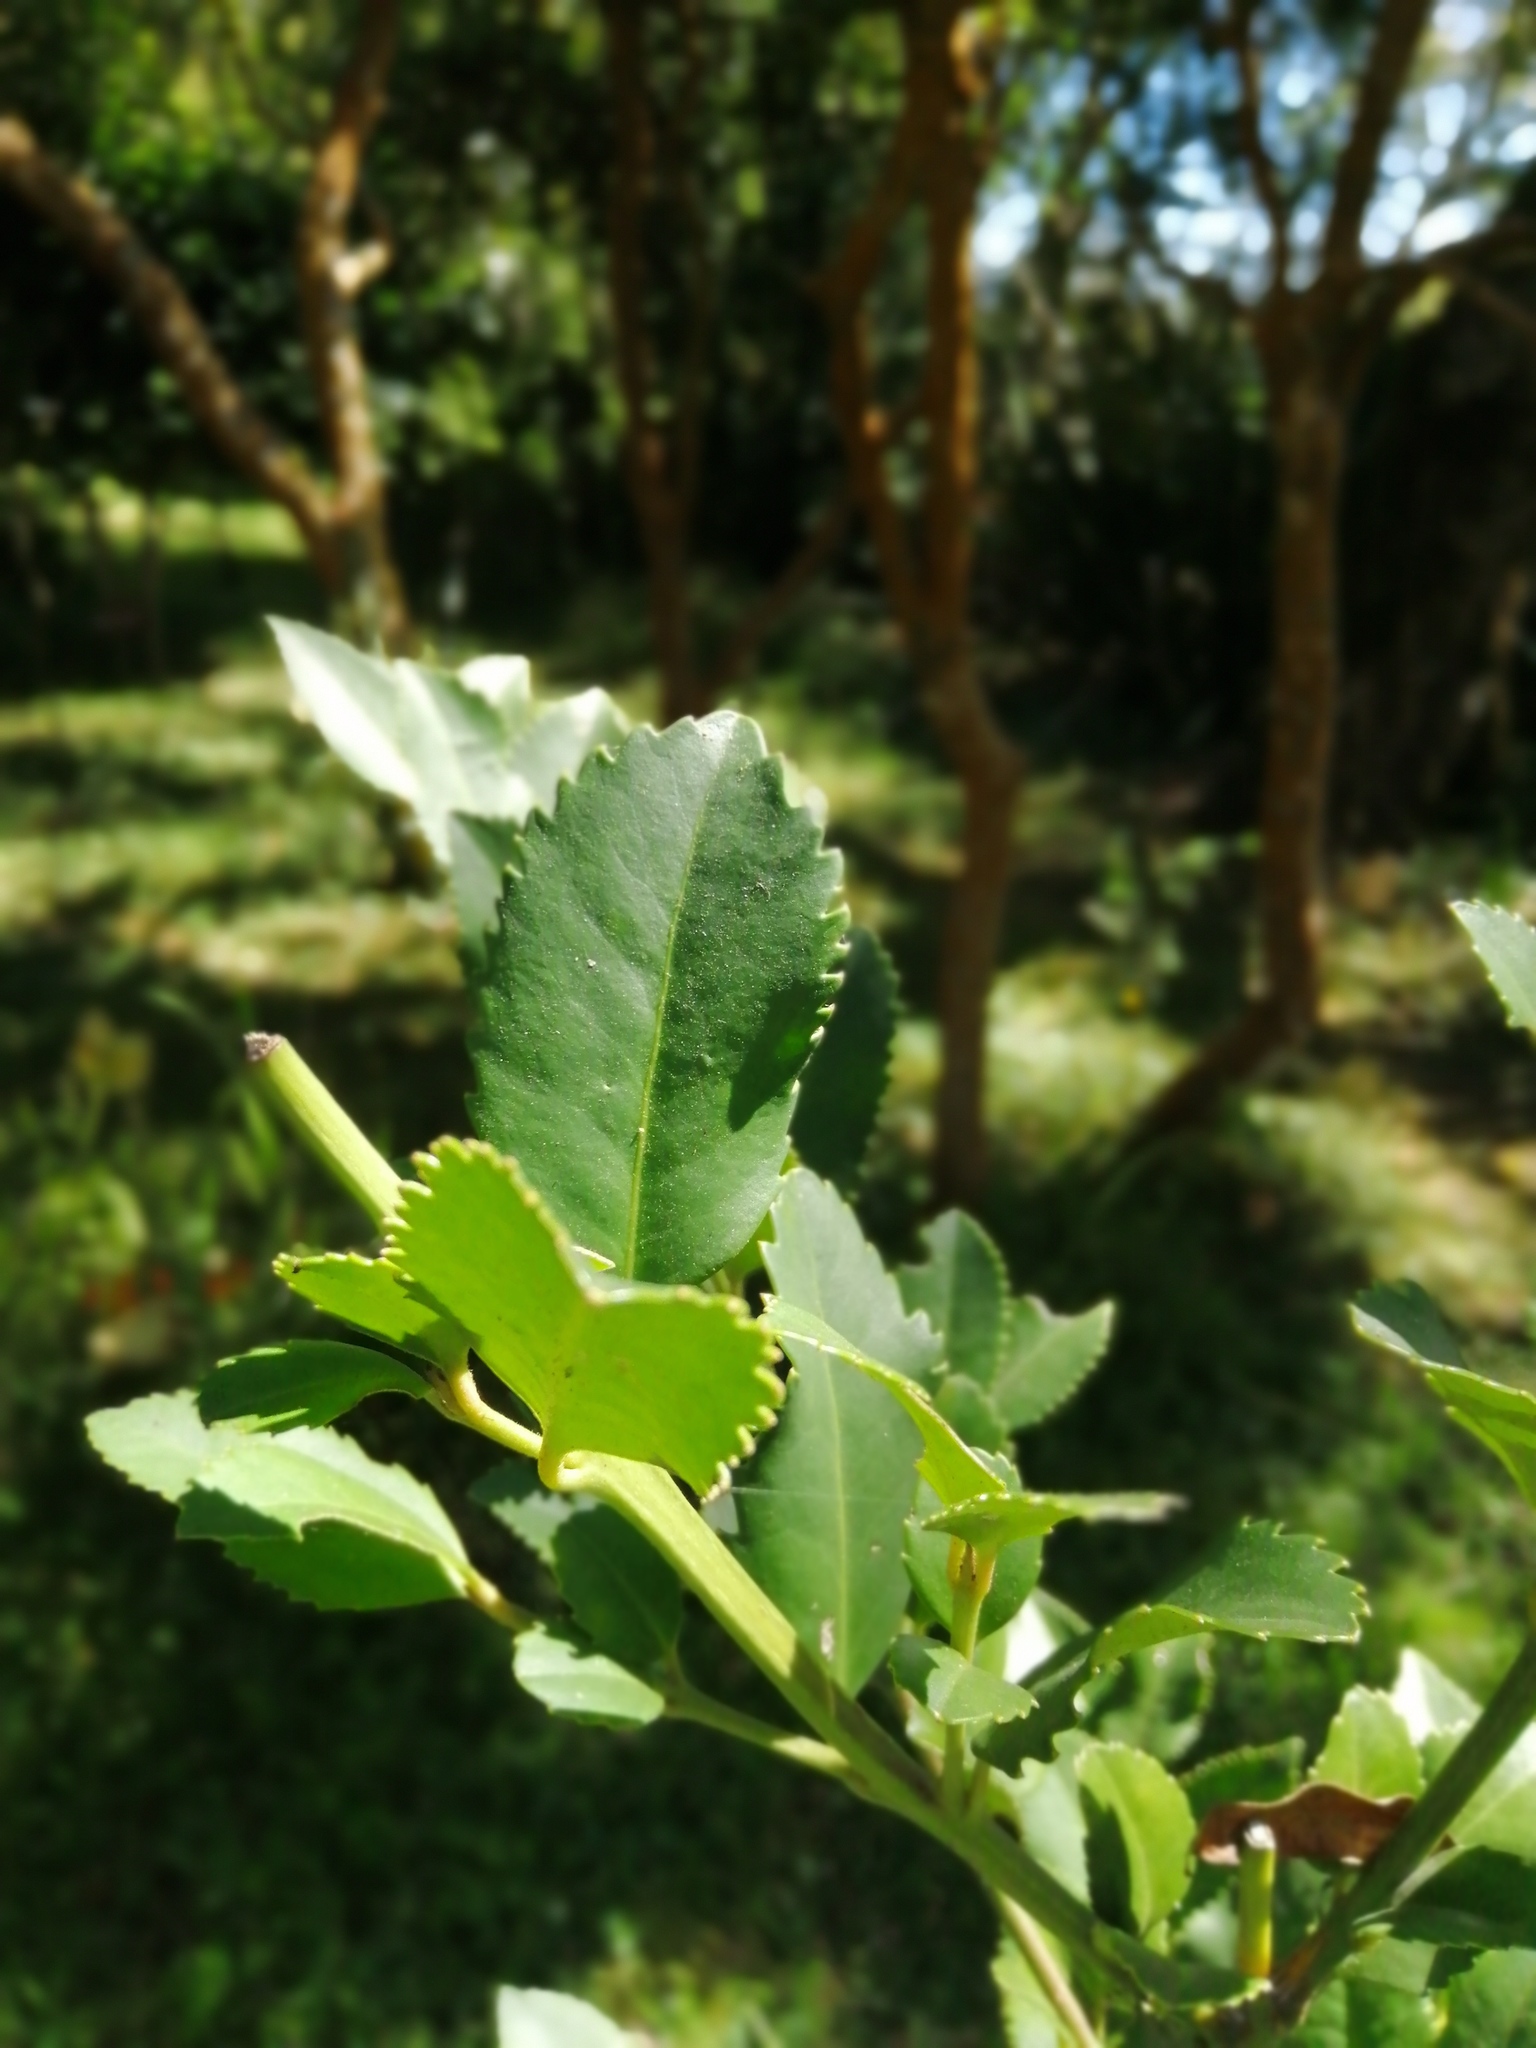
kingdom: Plantae
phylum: Tracheophyta
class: Magnoliopsida
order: Laurales
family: Atherospermataceae
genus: Laureliopsis
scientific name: Laureliopsis philippiana
